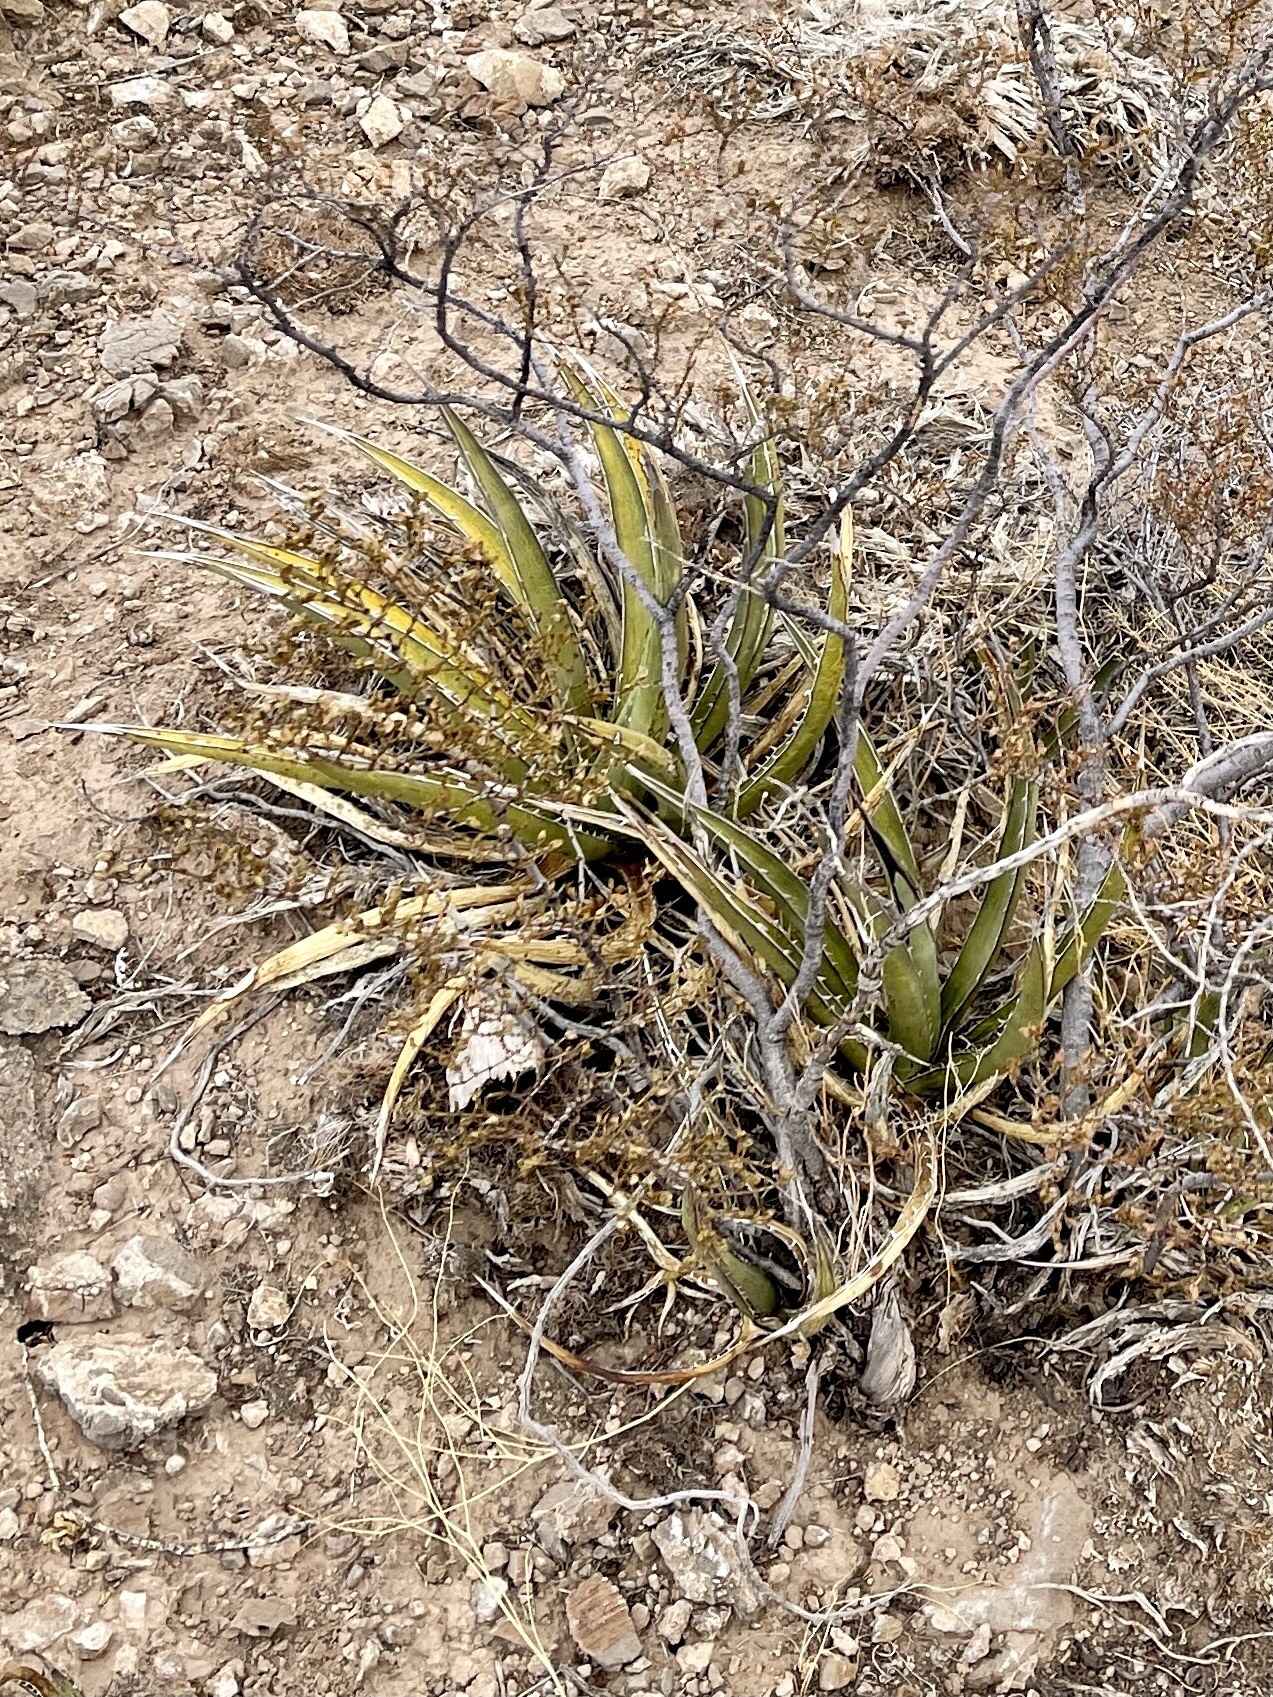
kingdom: Plantae
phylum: Tracheophyta
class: Liliopsida
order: Asparagales
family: Asparagaceae
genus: Agave
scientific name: Agave lechuguilla
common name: Lecheguilla agave
